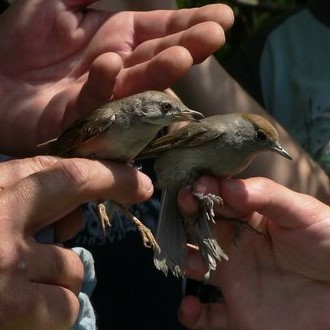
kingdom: Animalia
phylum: Chordata
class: Aves
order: Passeriformes
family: Sylviidae
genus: Sylvia
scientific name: Sylvia atricapilla
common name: Eurasian blackcap
